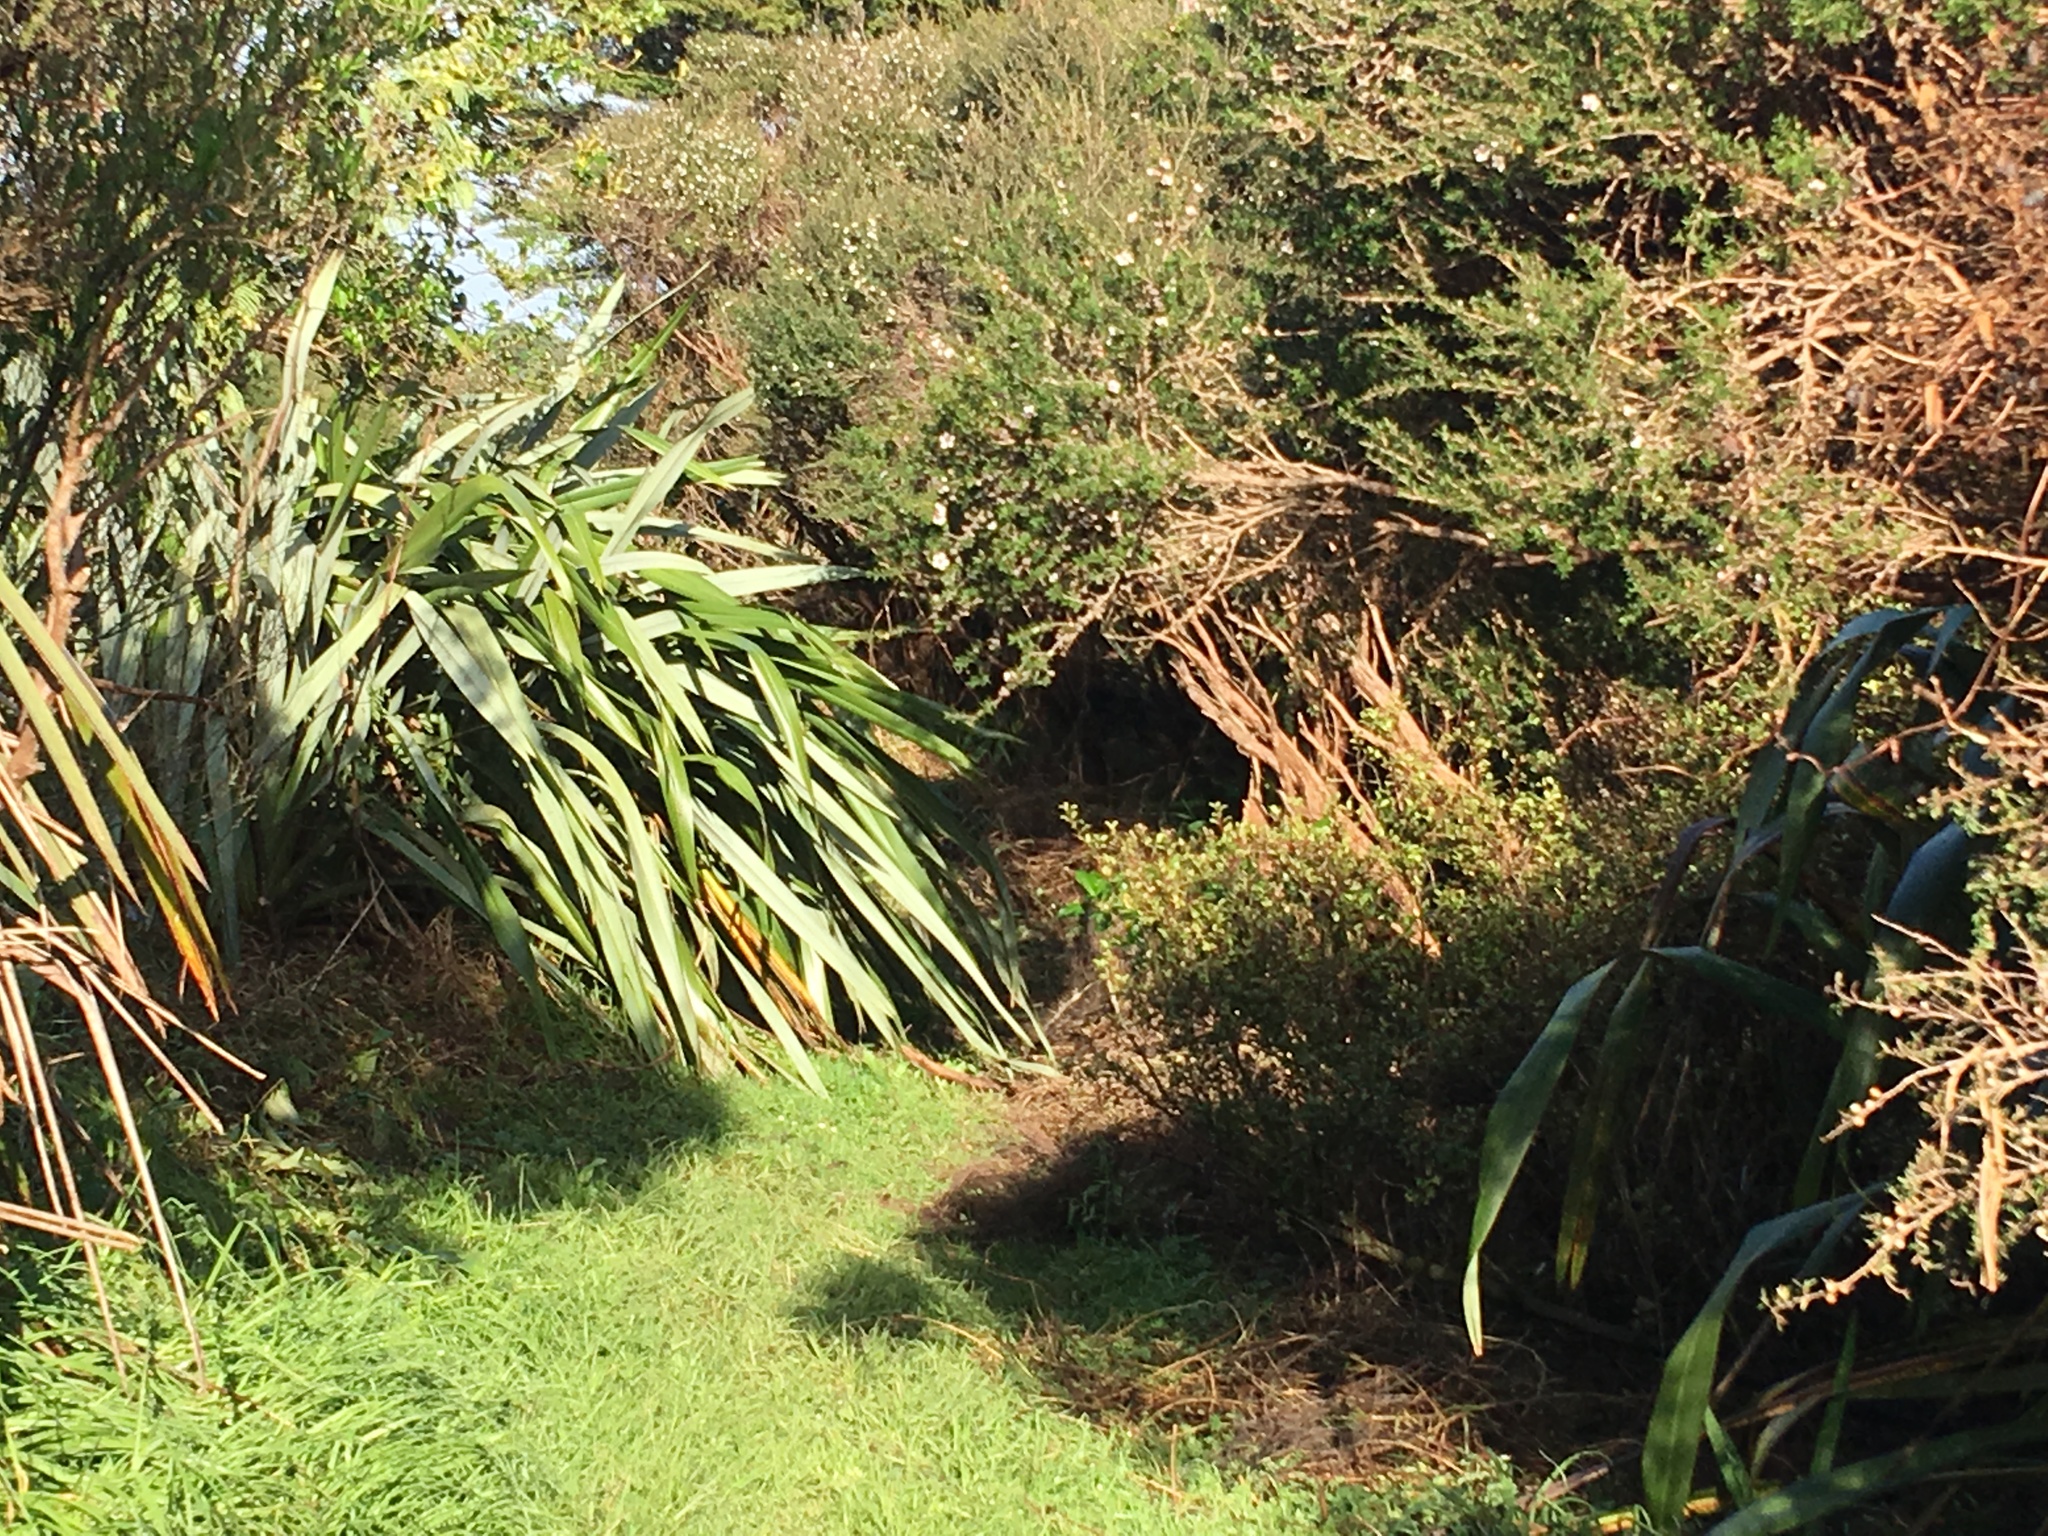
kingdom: Plantae
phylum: Tracheophyta
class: Liliopsida
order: Poales
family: Poaceae
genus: Cenchrus
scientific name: Cenchrus clandestinus
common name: Kikuyugrass
